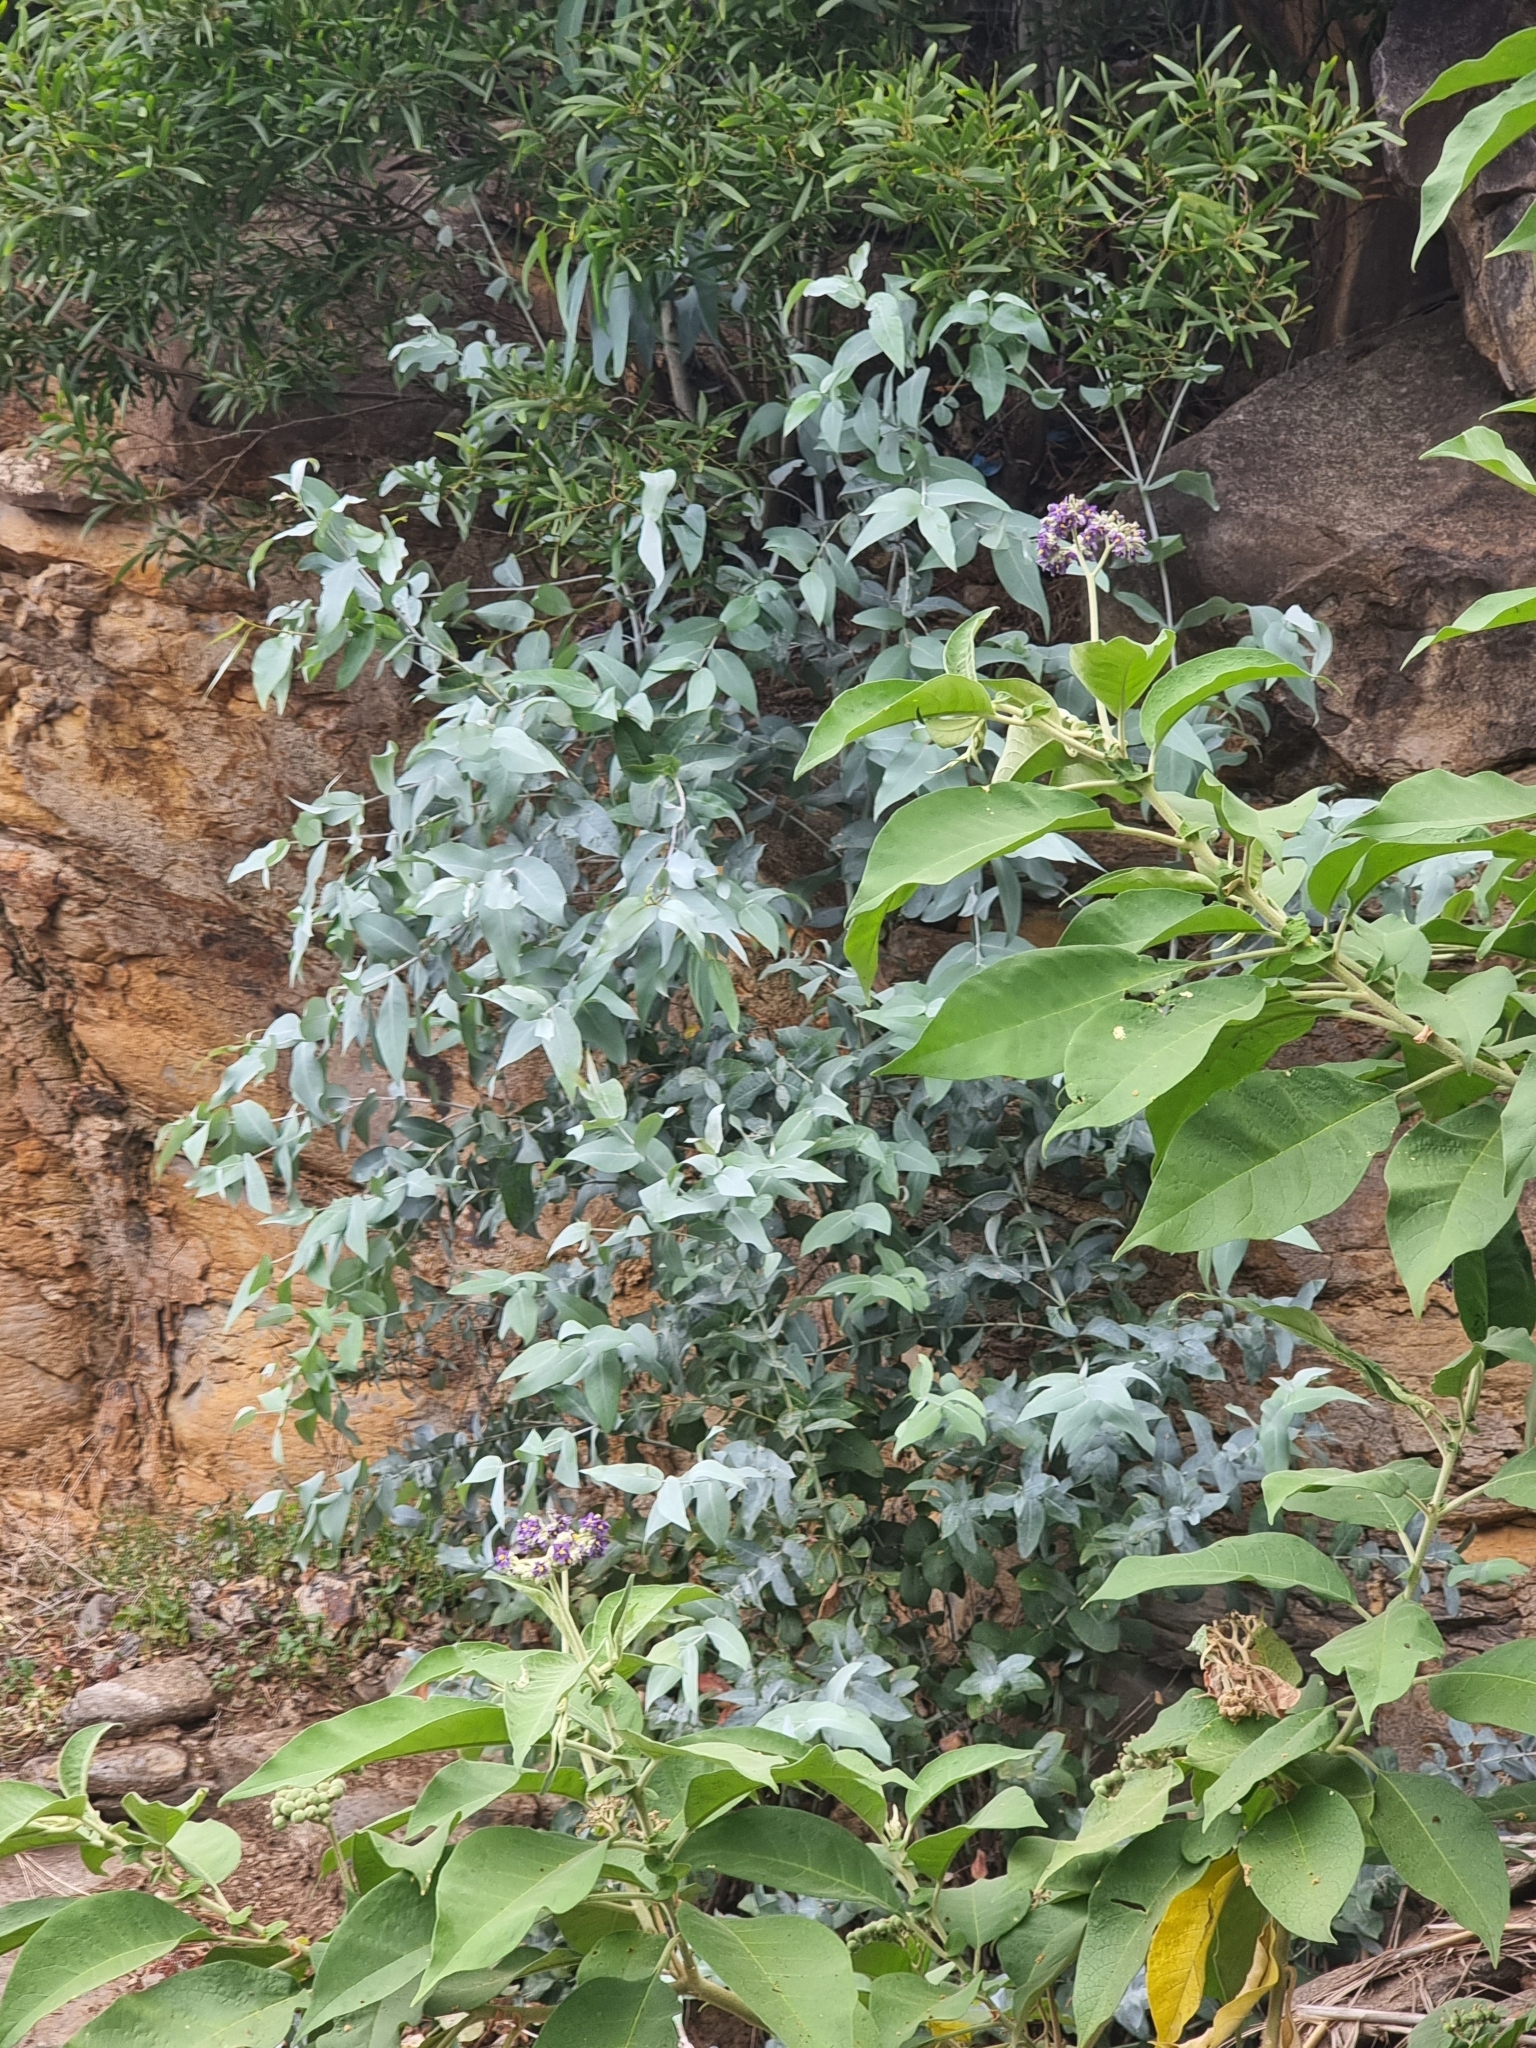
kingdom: Plantae
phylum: Tracheophyta
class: Magnoliopsida
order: Myrtales
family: Myrtaceae
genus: Eucalyptus
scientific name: Eucalyptus globulus
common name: Southern blue-gum
